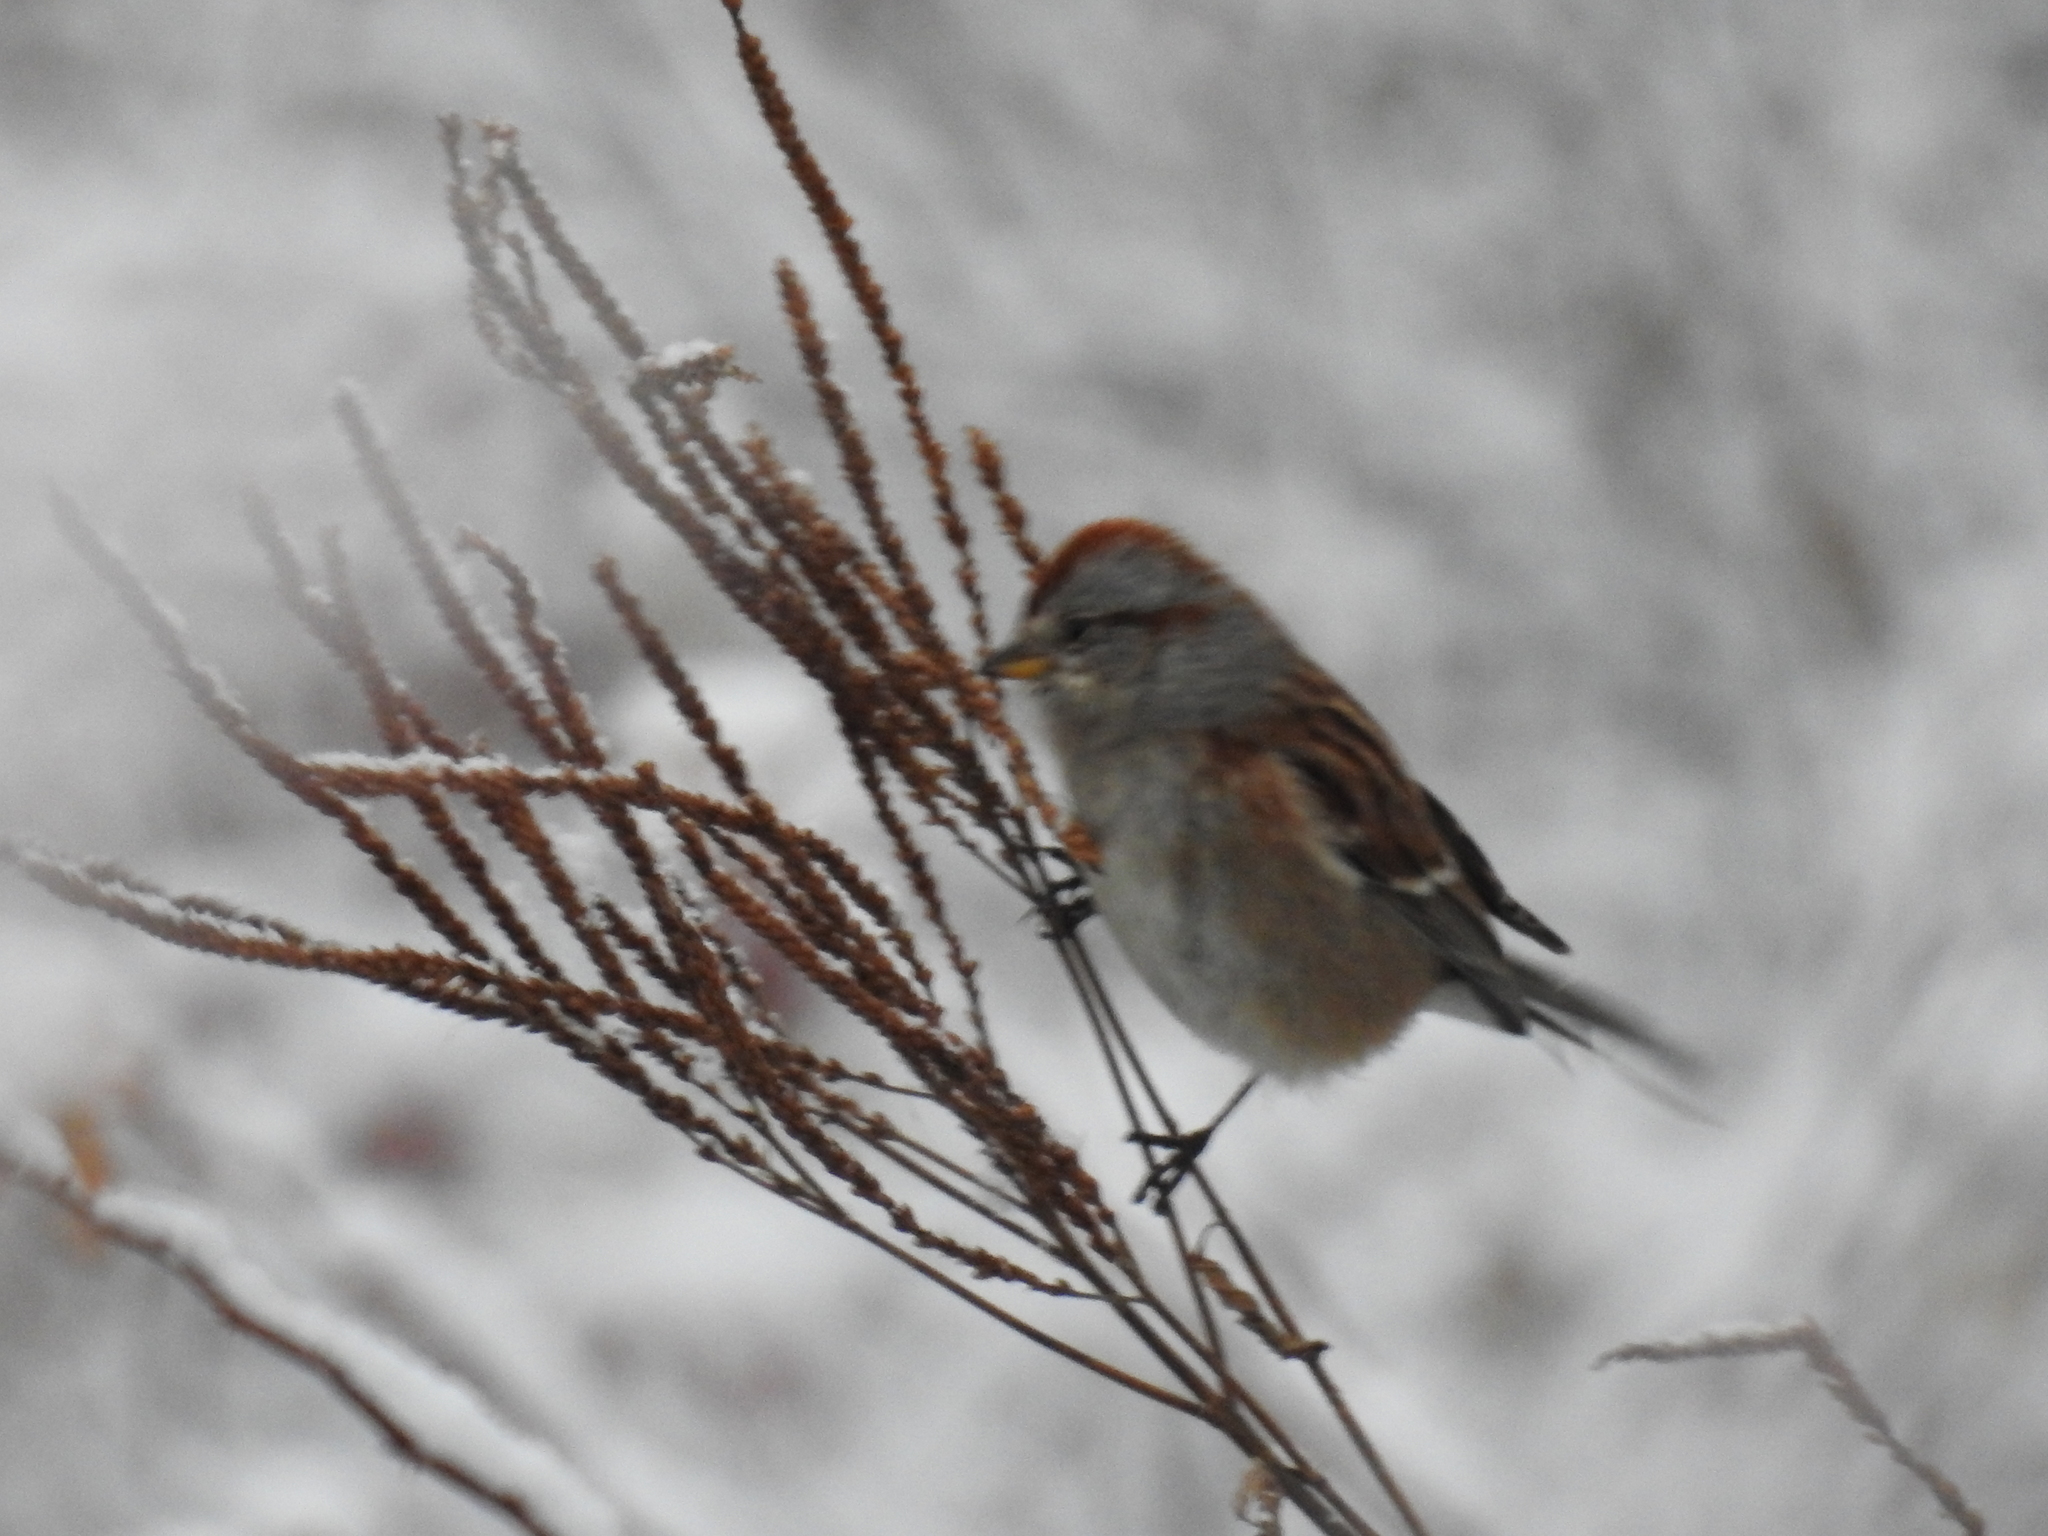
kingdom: Animalia
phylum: Chordata
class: Aves
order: Passeriformes
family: Passerellidae
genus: Spizelloides
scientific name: Spizelloides arborea
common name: American tree sparrow
